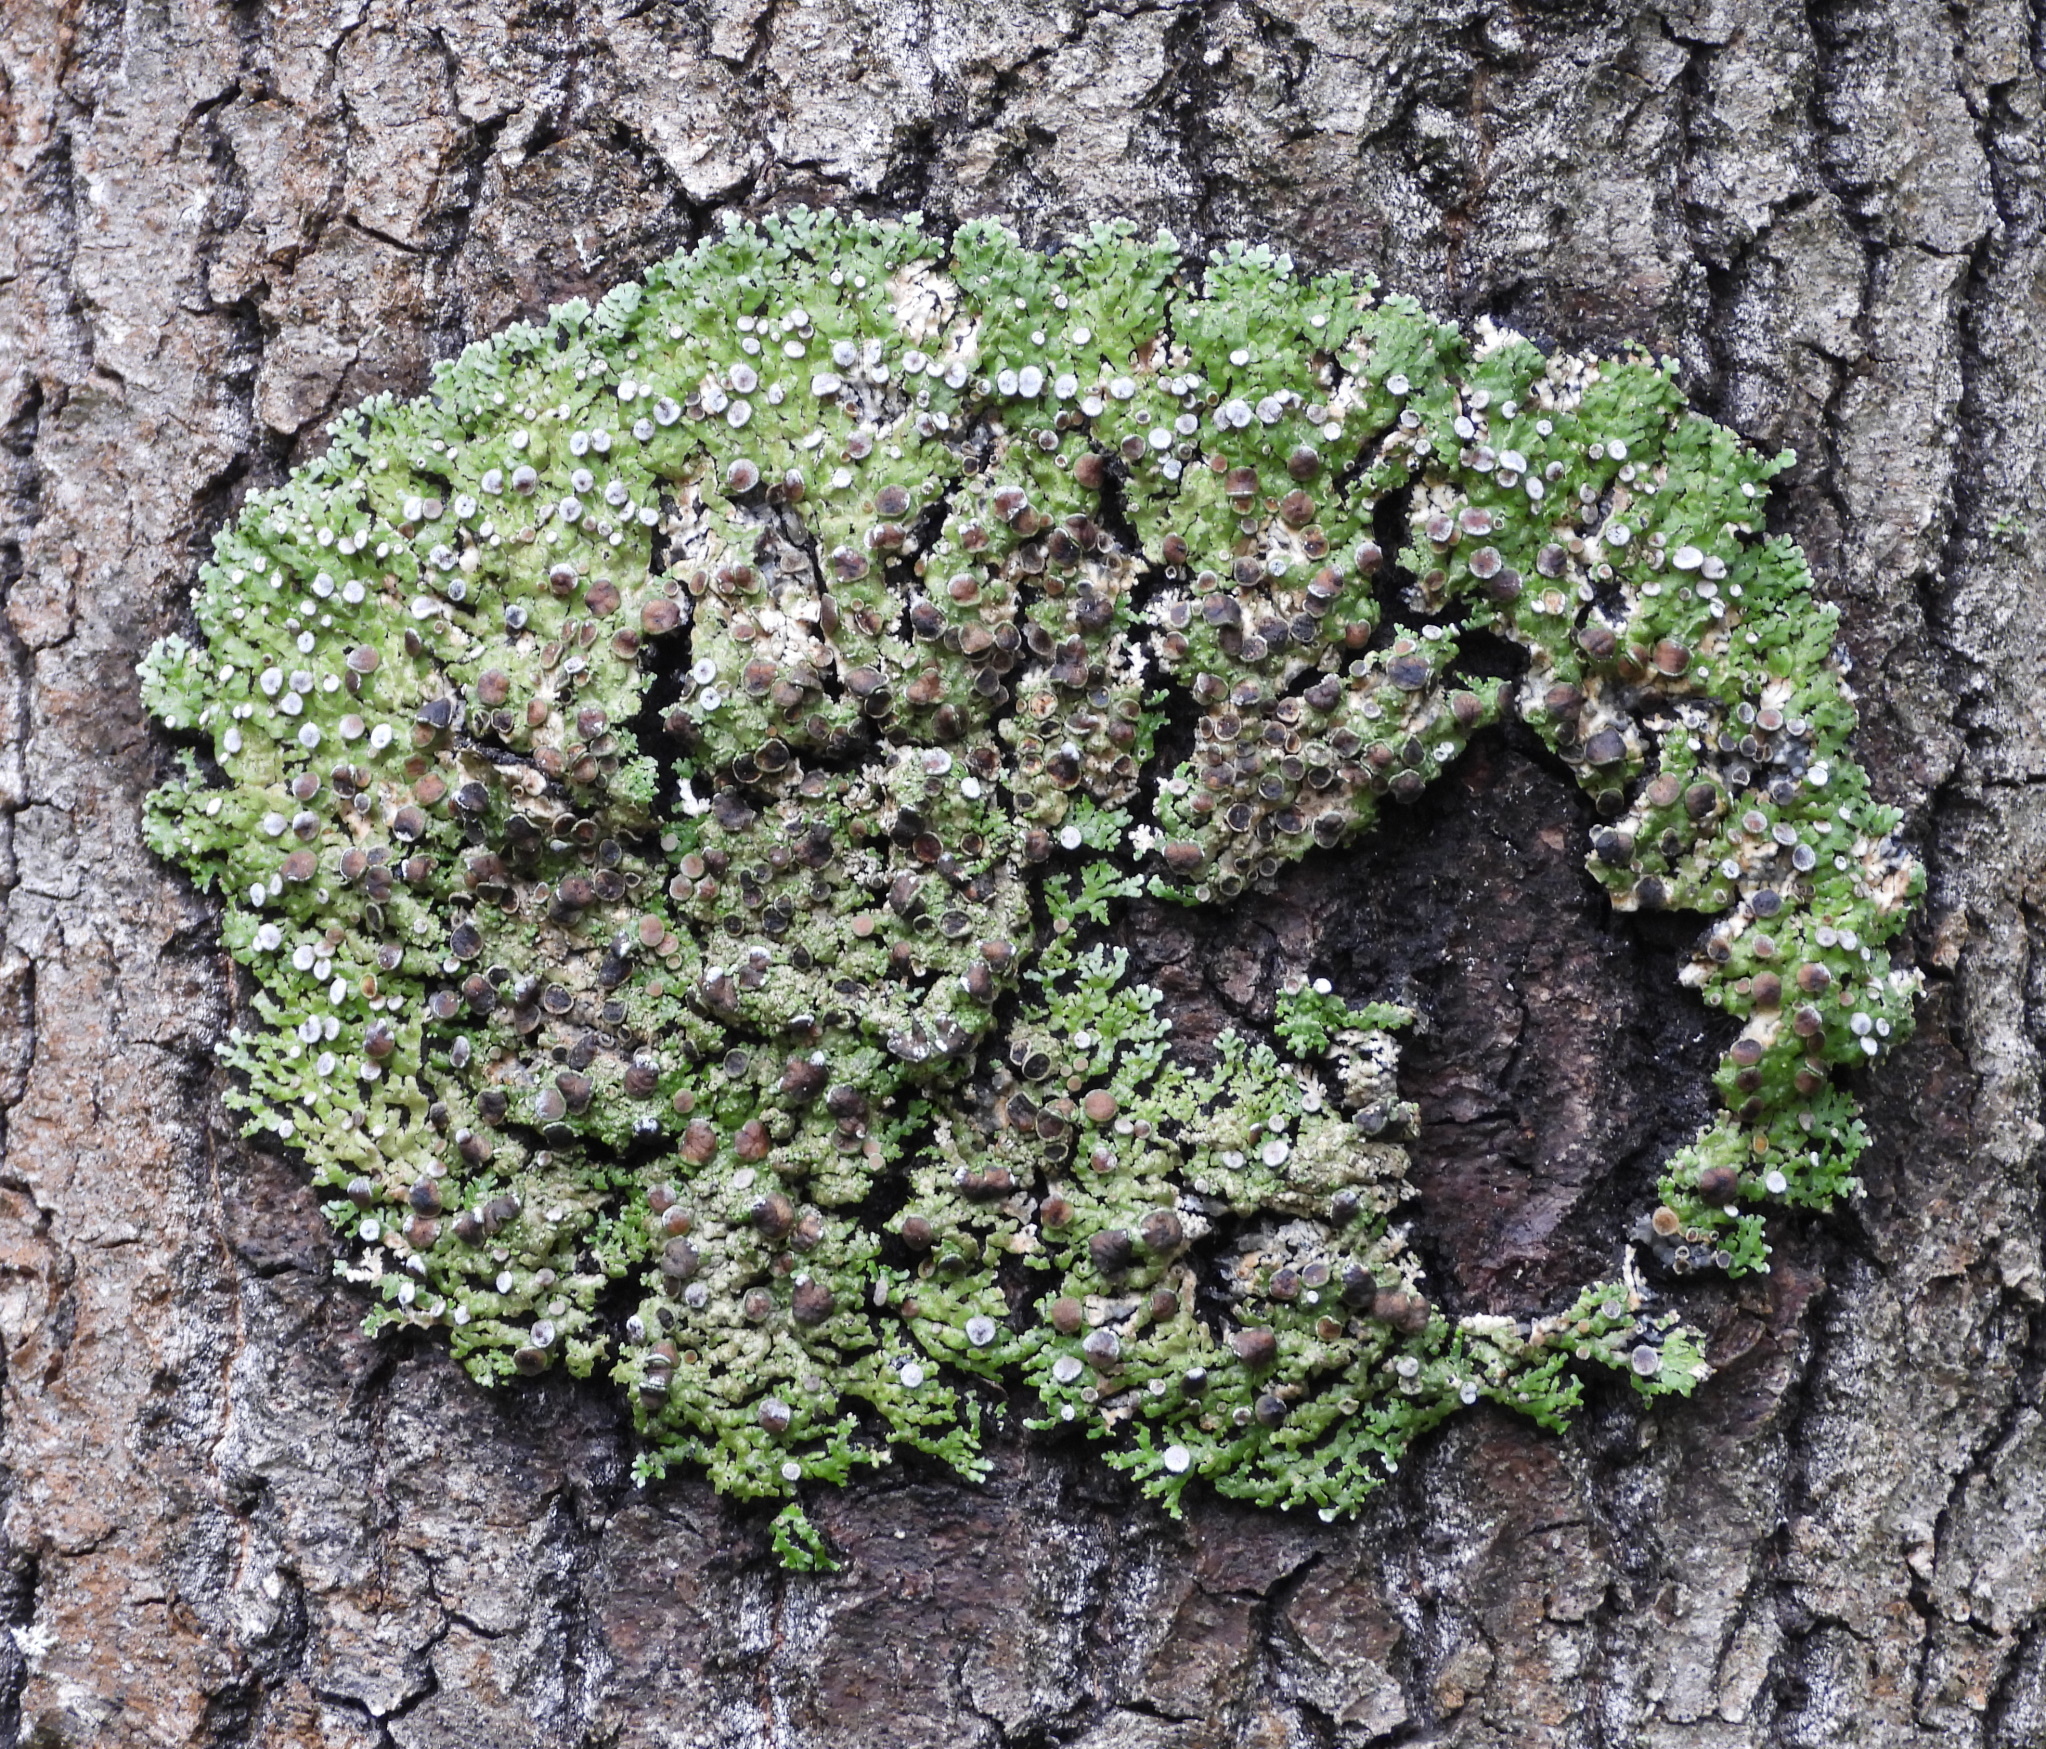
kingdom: Fungi
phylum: Ascomycota
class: Lecanoromycetes
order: Caliciales
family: Physciaceae
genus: Physconia
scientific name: Physconia distorta
